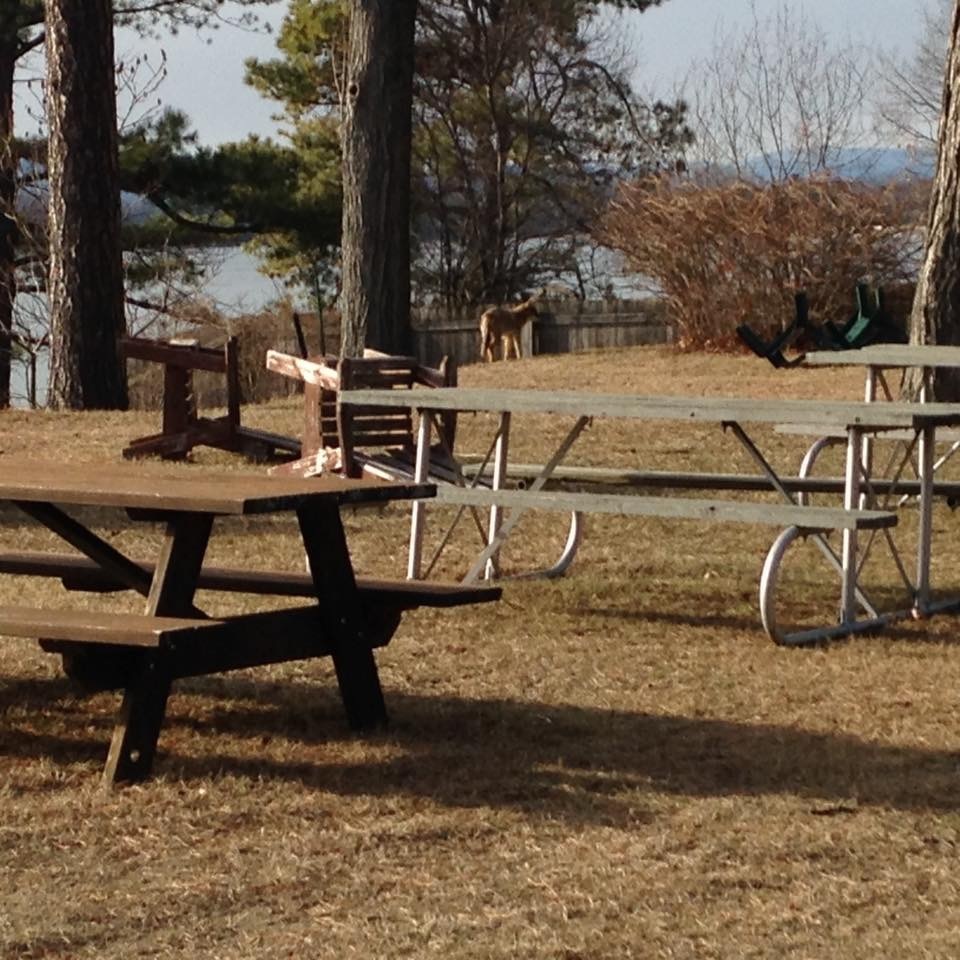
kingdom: Animalia
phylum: Chordata
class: Mammalia
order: Carnivora
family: Canidae
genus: Canis
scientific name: Canis latrans
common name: Coyote
